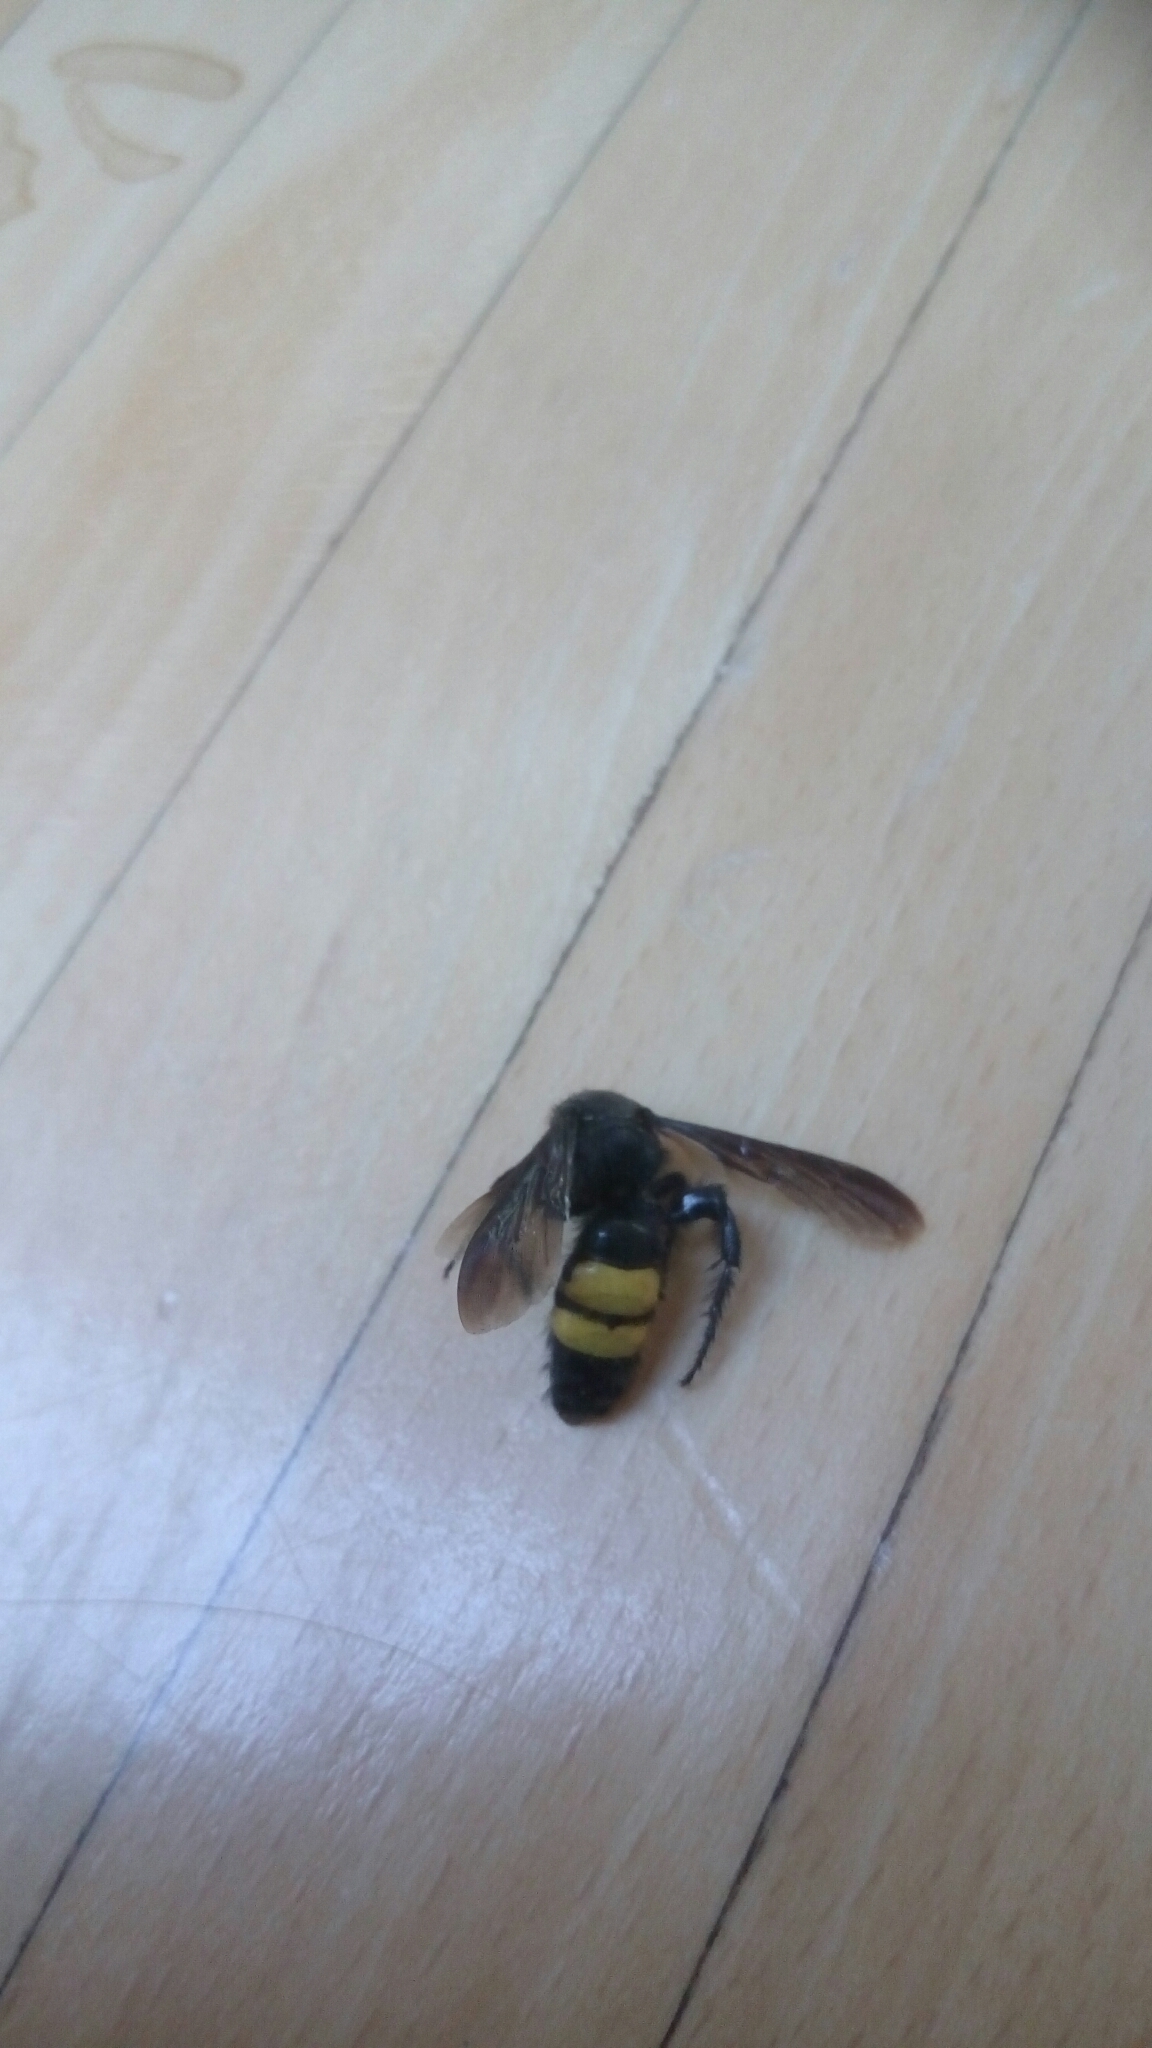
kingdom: Animalia
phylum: Arthropoda
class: Insecta
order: Hymenoptera
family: Scoliidae
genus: Scolia
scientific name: Scolia hirta
